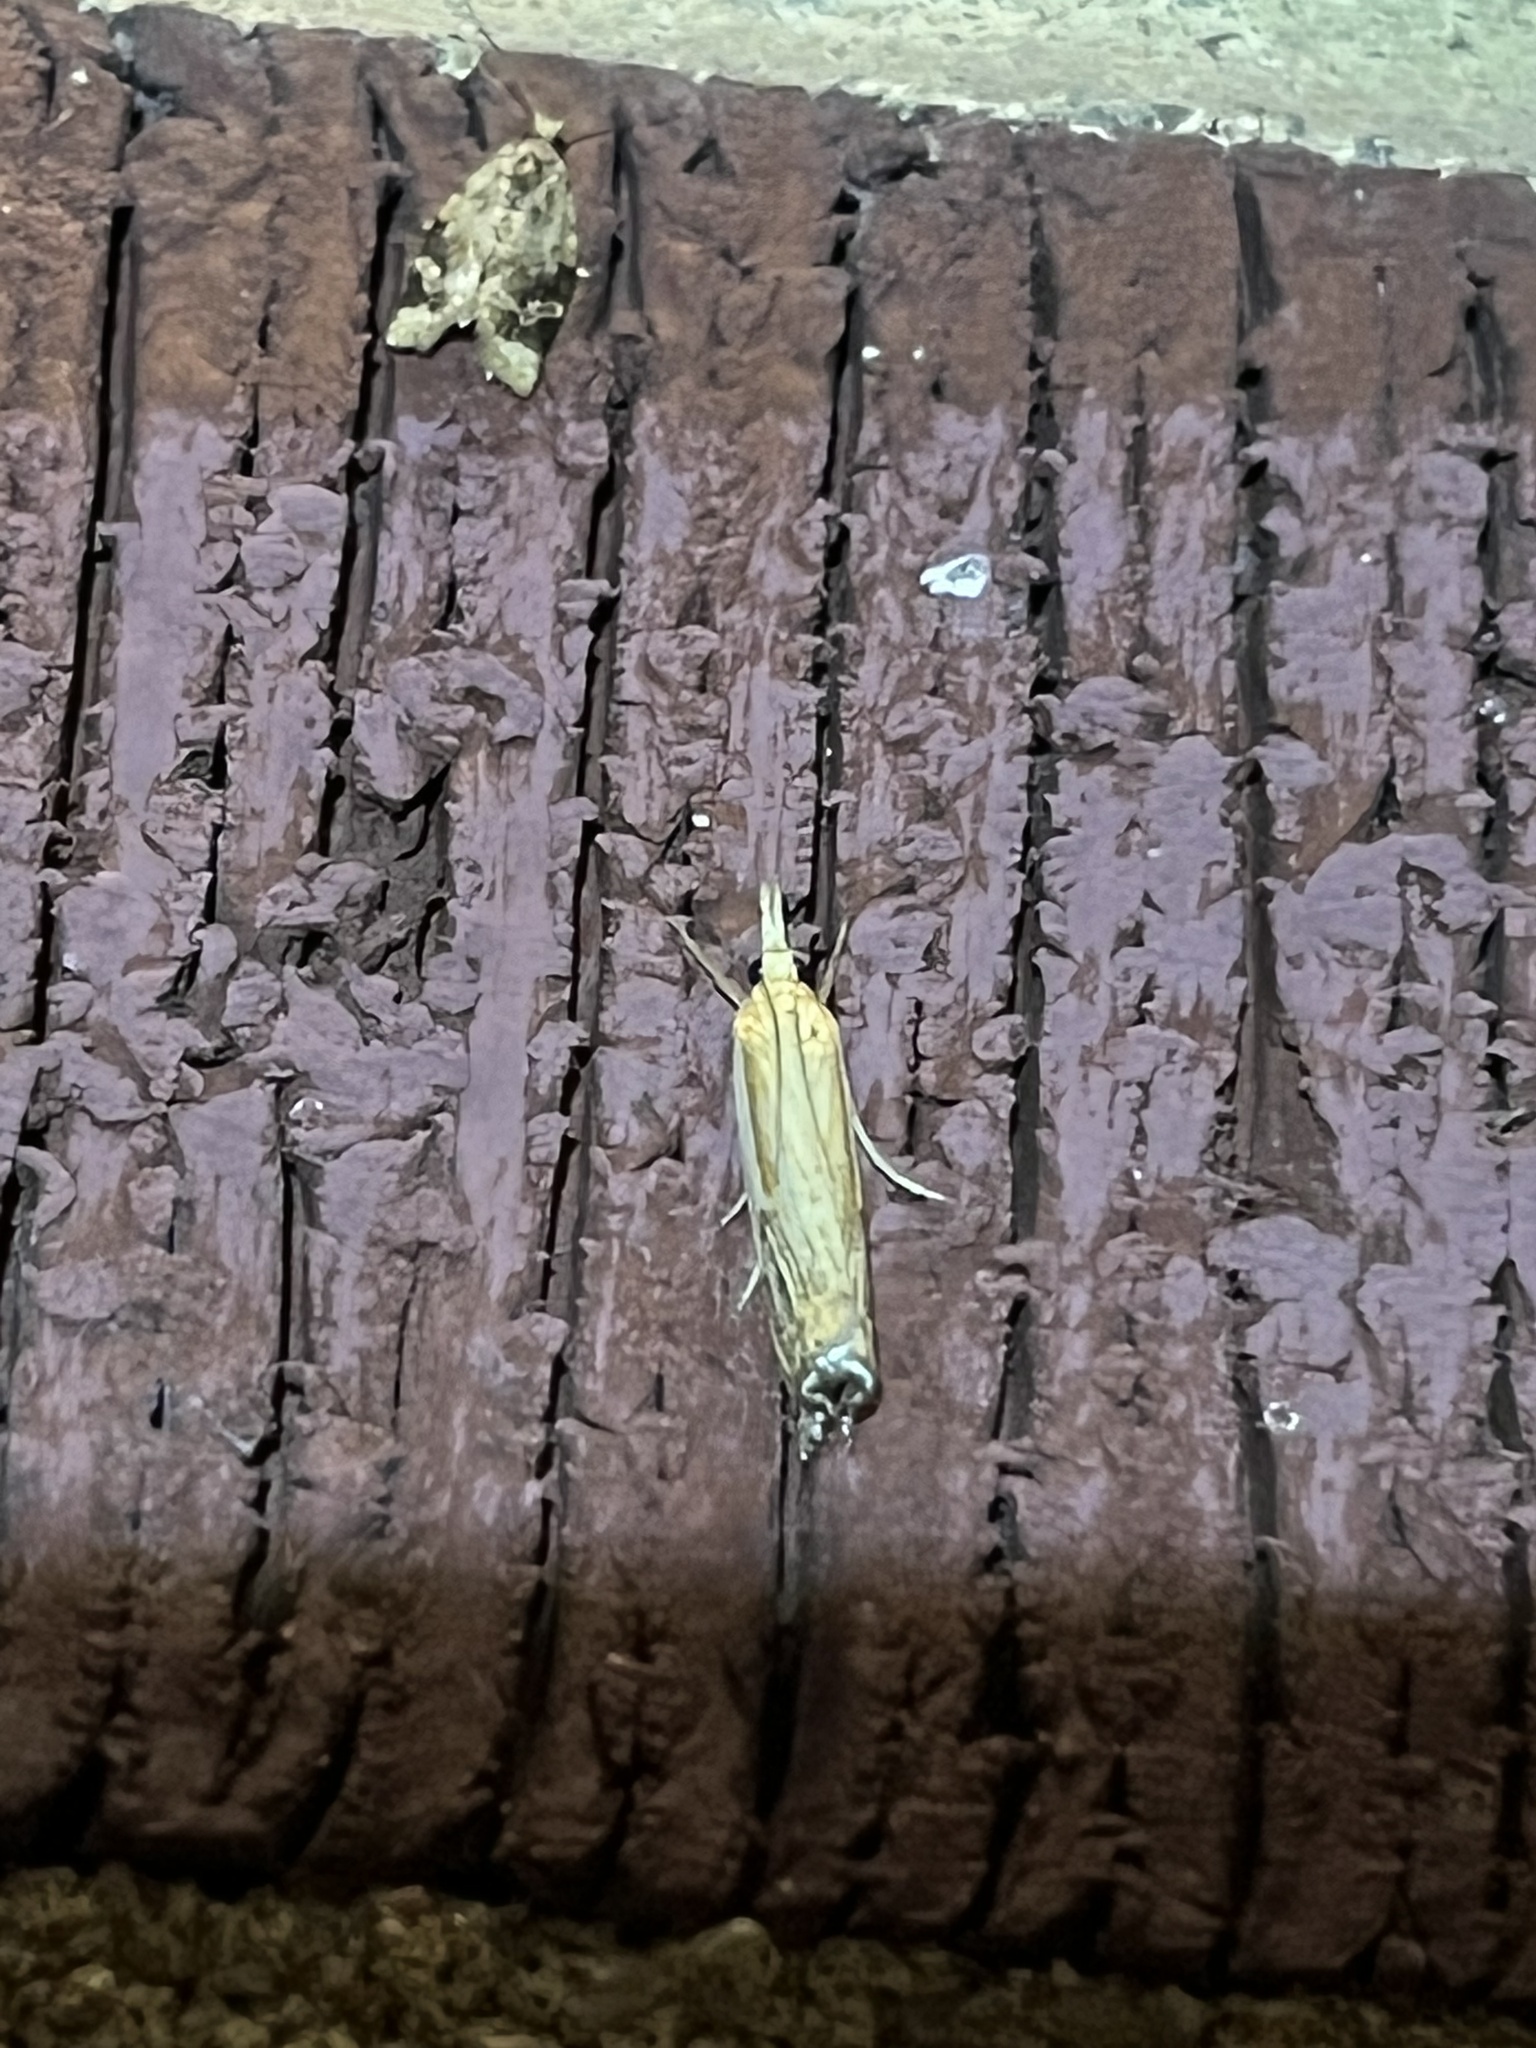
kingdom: Animalia
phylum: Arthropoda
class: Insecta
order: Lepidoptera
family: Crambidae
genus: Crambus
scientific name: Crambus agitatellus
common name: Double-banded grass-veneer
